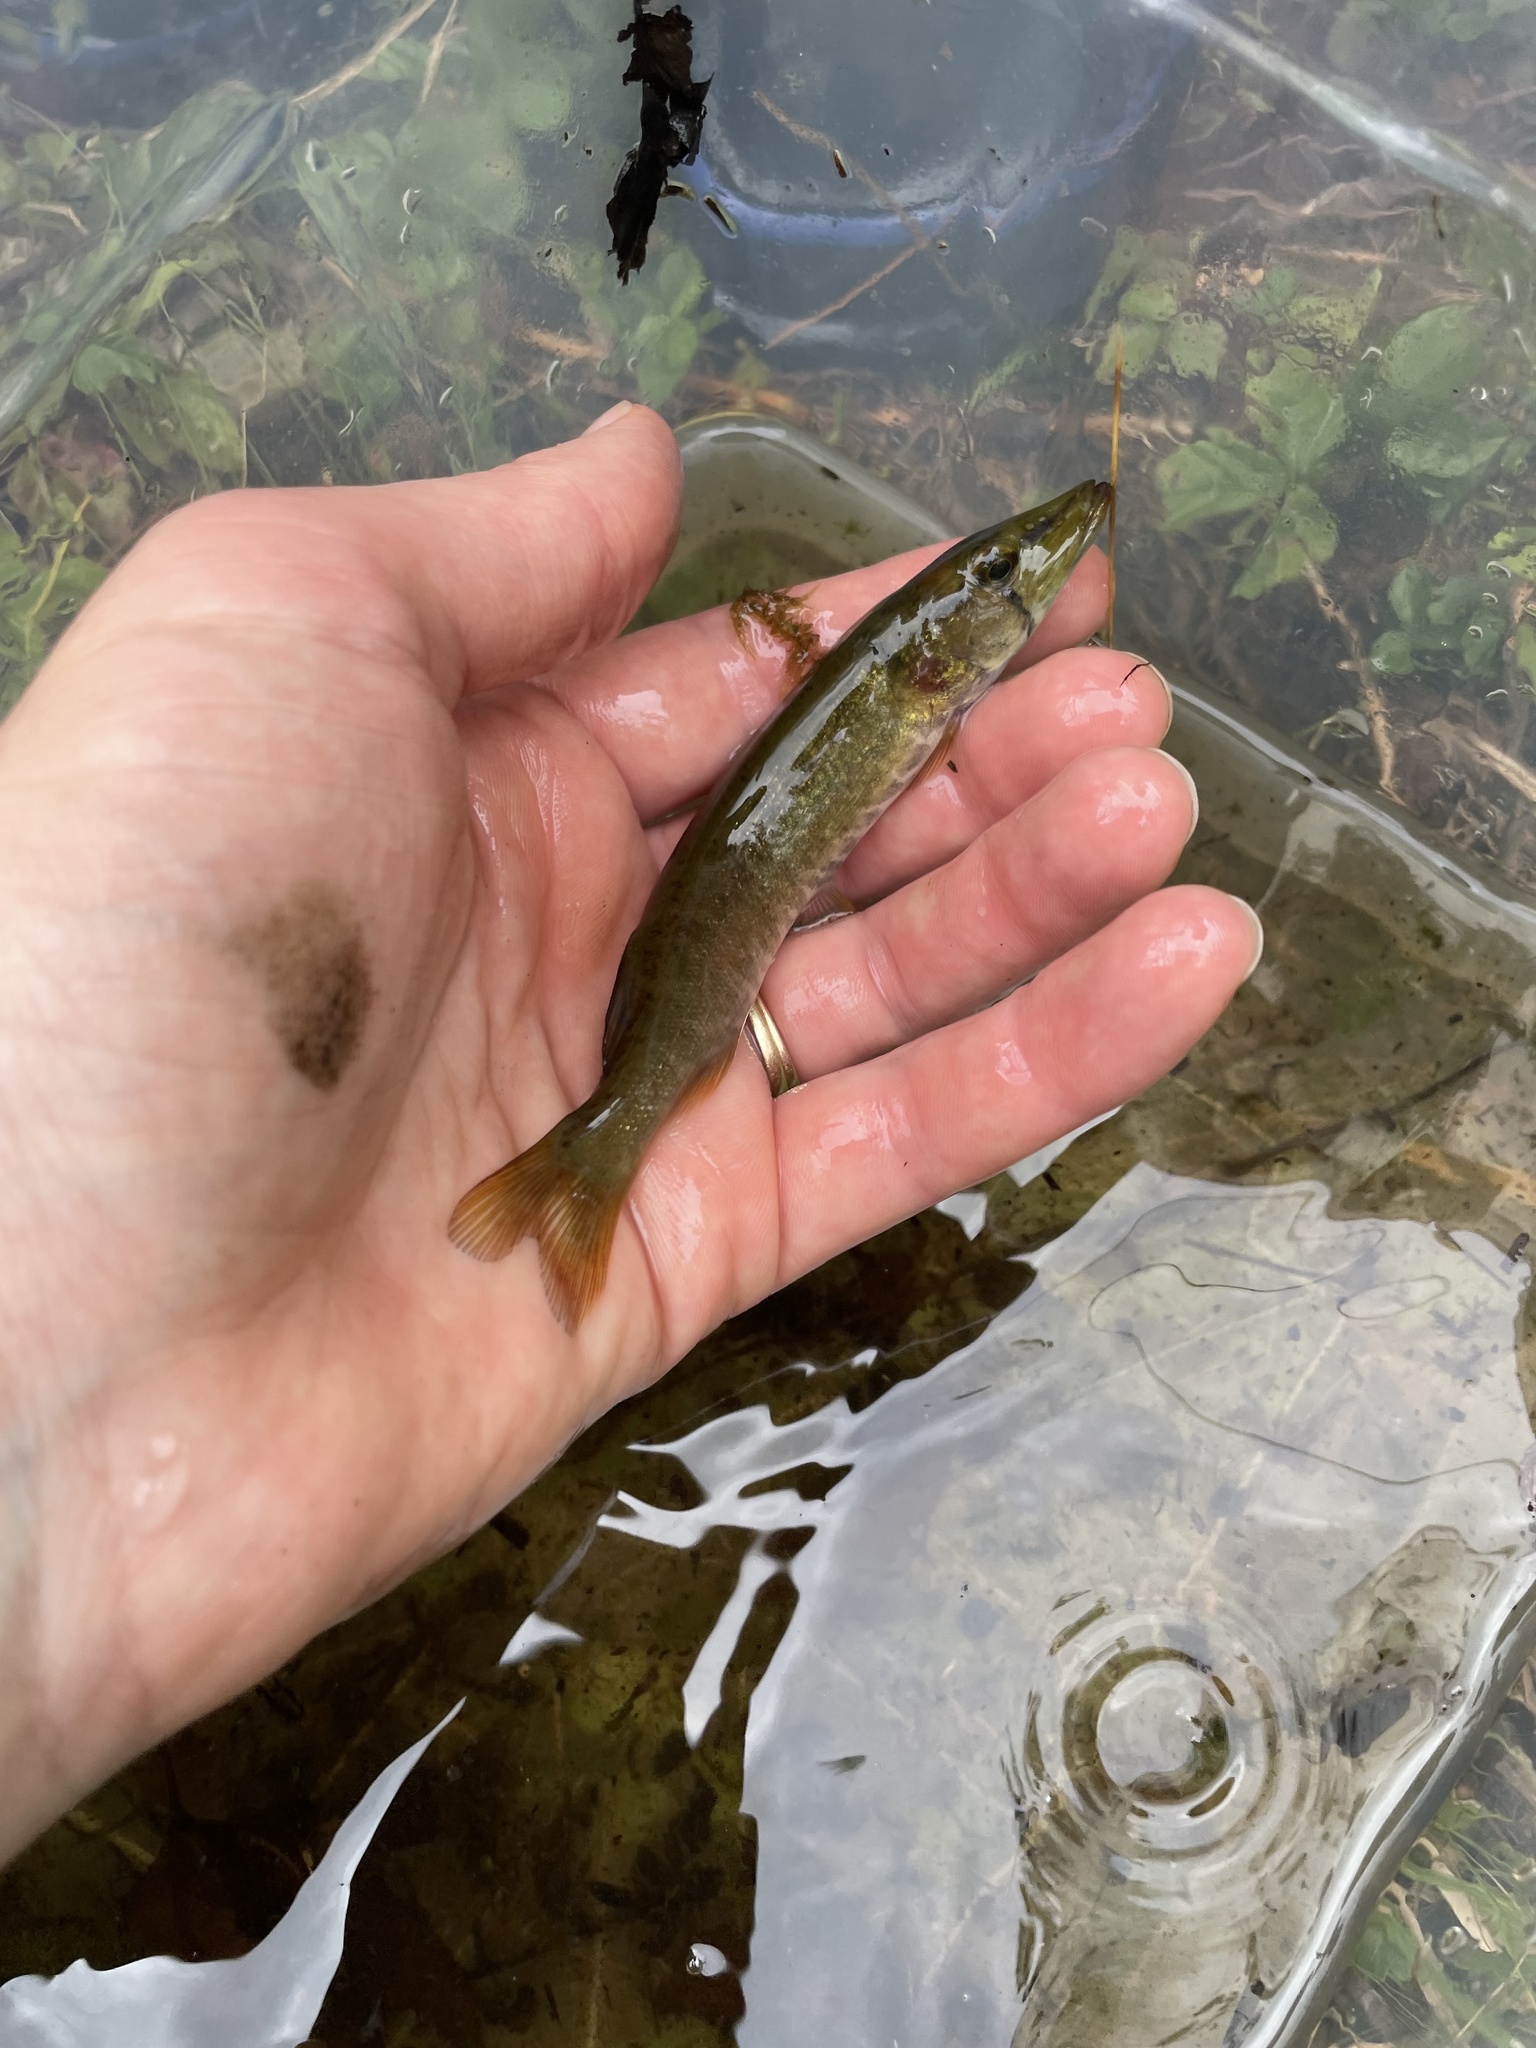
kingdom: Animalia
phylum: Chordata
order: Esociformes
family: Esocidae
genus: Esox
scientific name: Esox americanus
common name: Redfin pickerel
